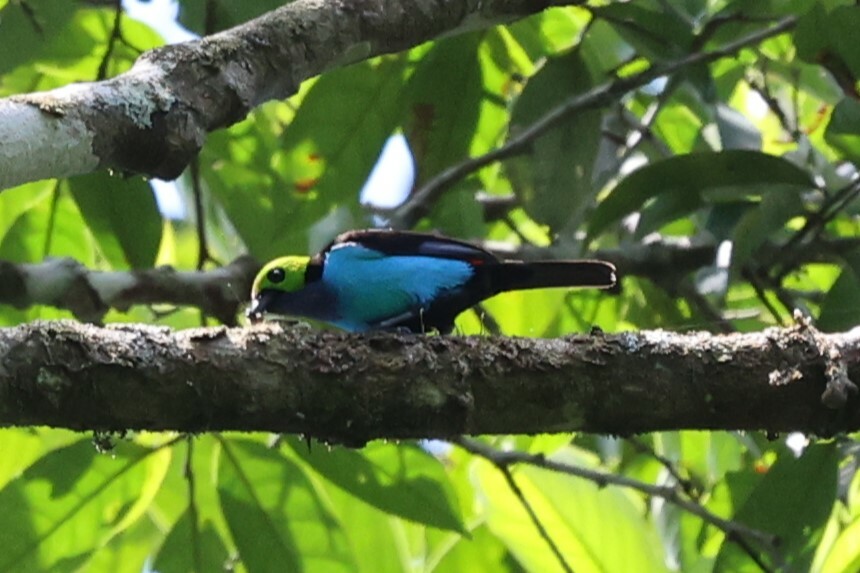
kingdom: Animalia
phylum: Chordata
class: Aves
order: Passeriformes
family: Thraupidae
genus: Tangara
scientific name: Tangara chilensis
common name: Paradise tanager
